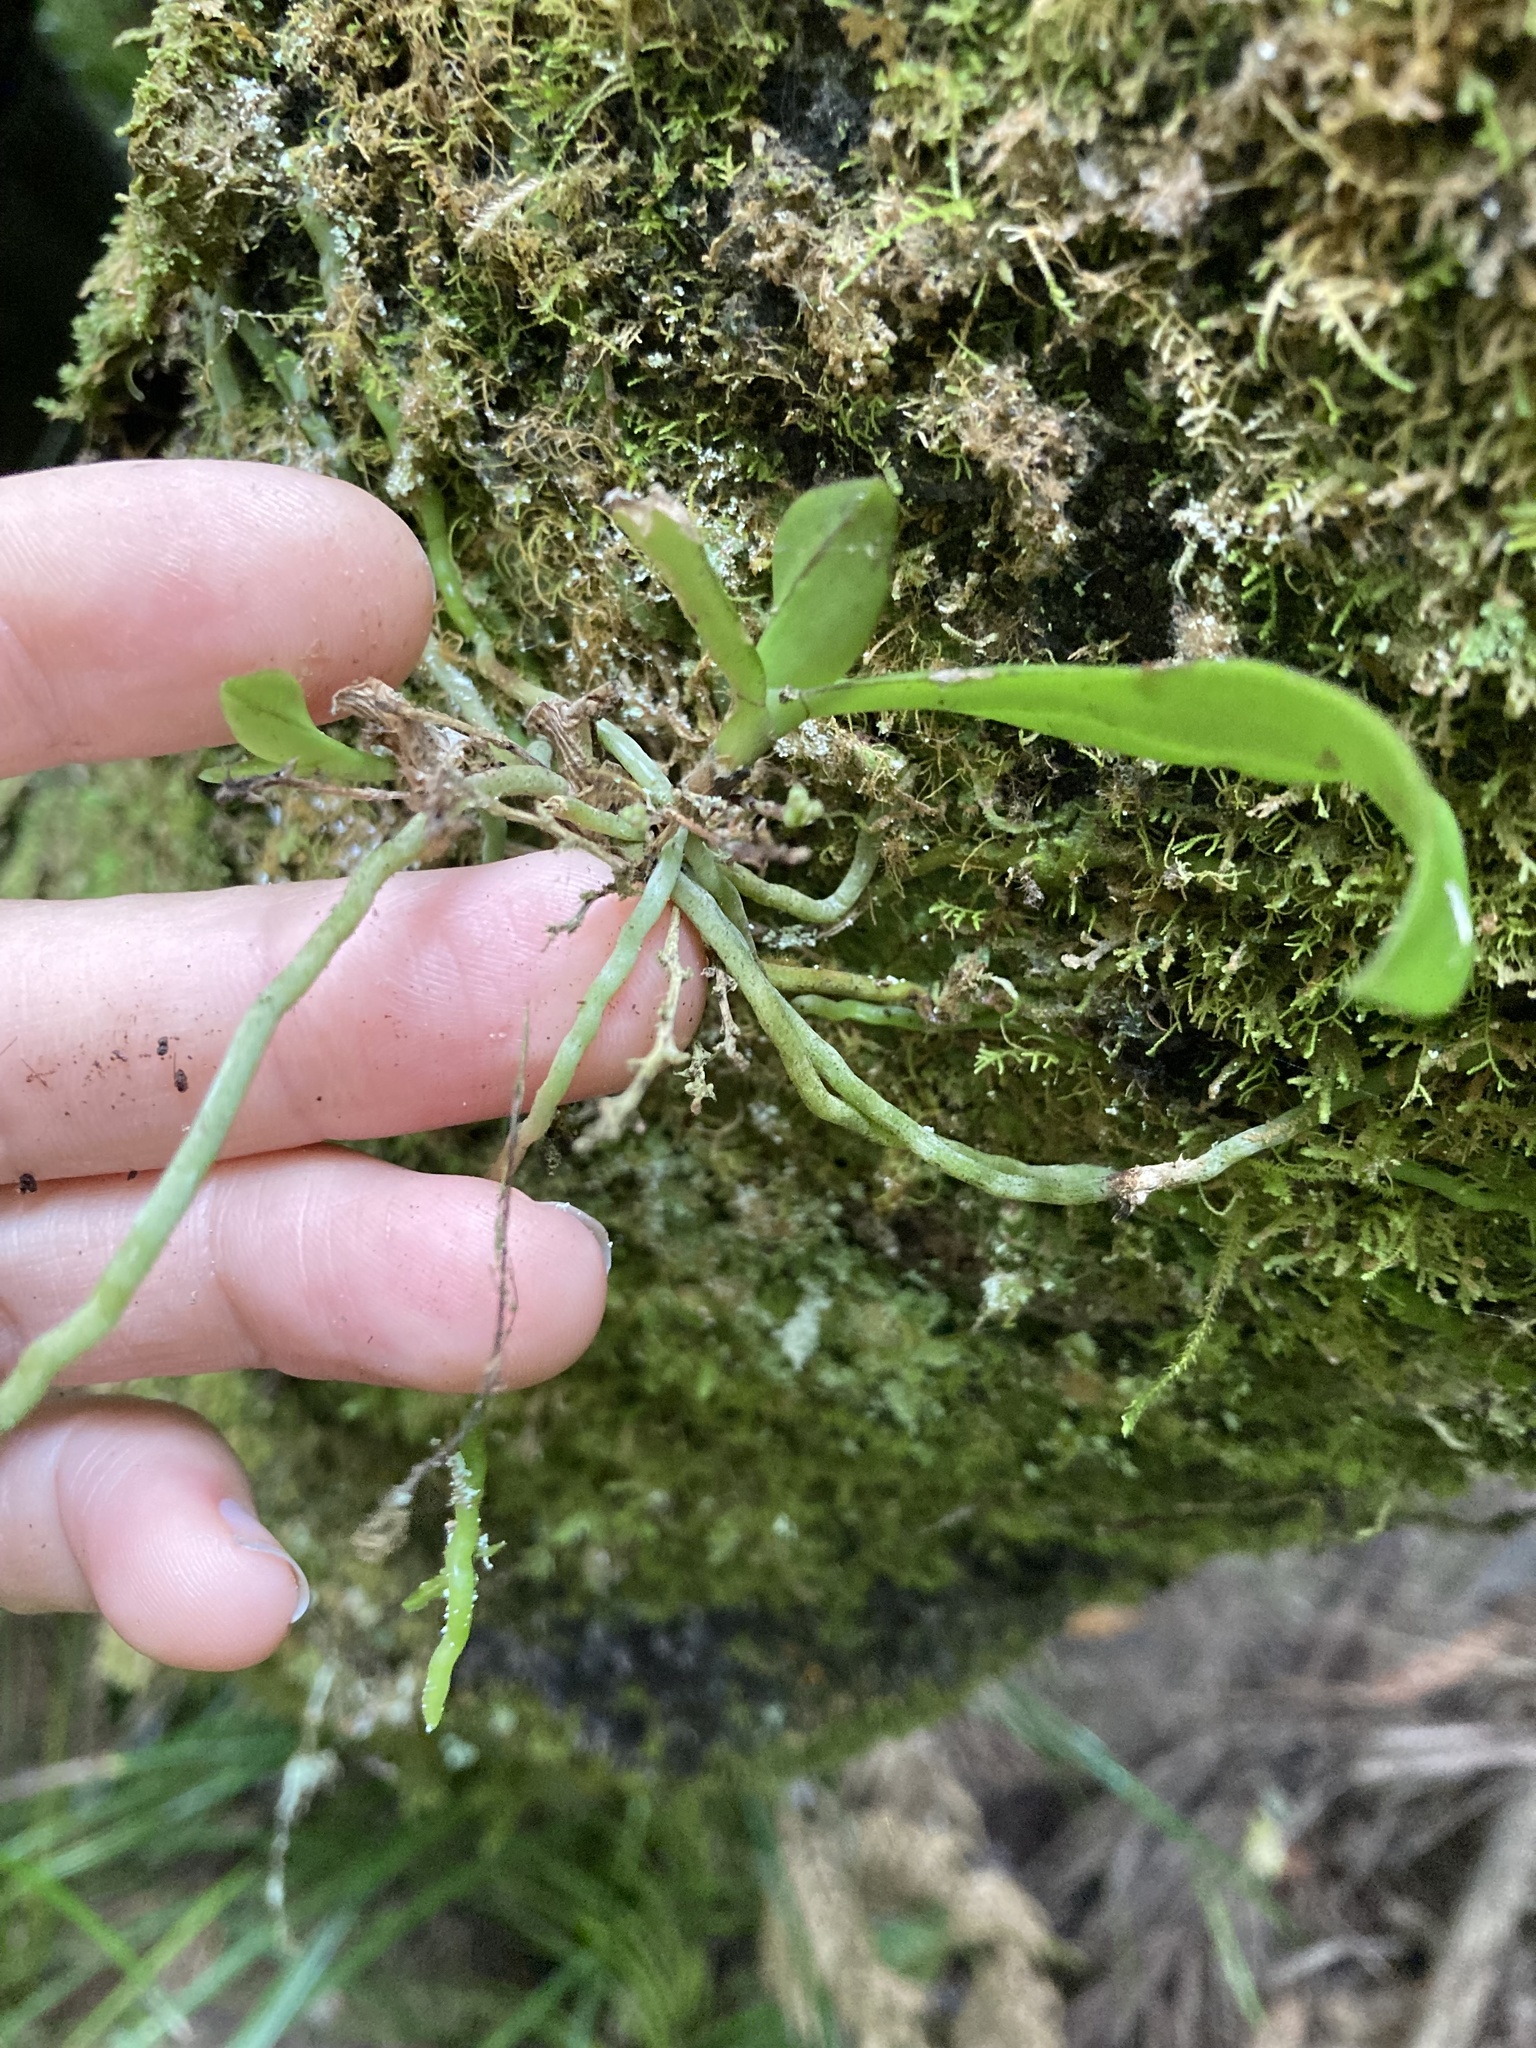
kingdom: Plantae
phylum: Tracheophyta
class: Liliopsida
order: Asparagales
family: Orchidaceae
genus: Drymoanthus
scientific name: Drymoanthus adversus
